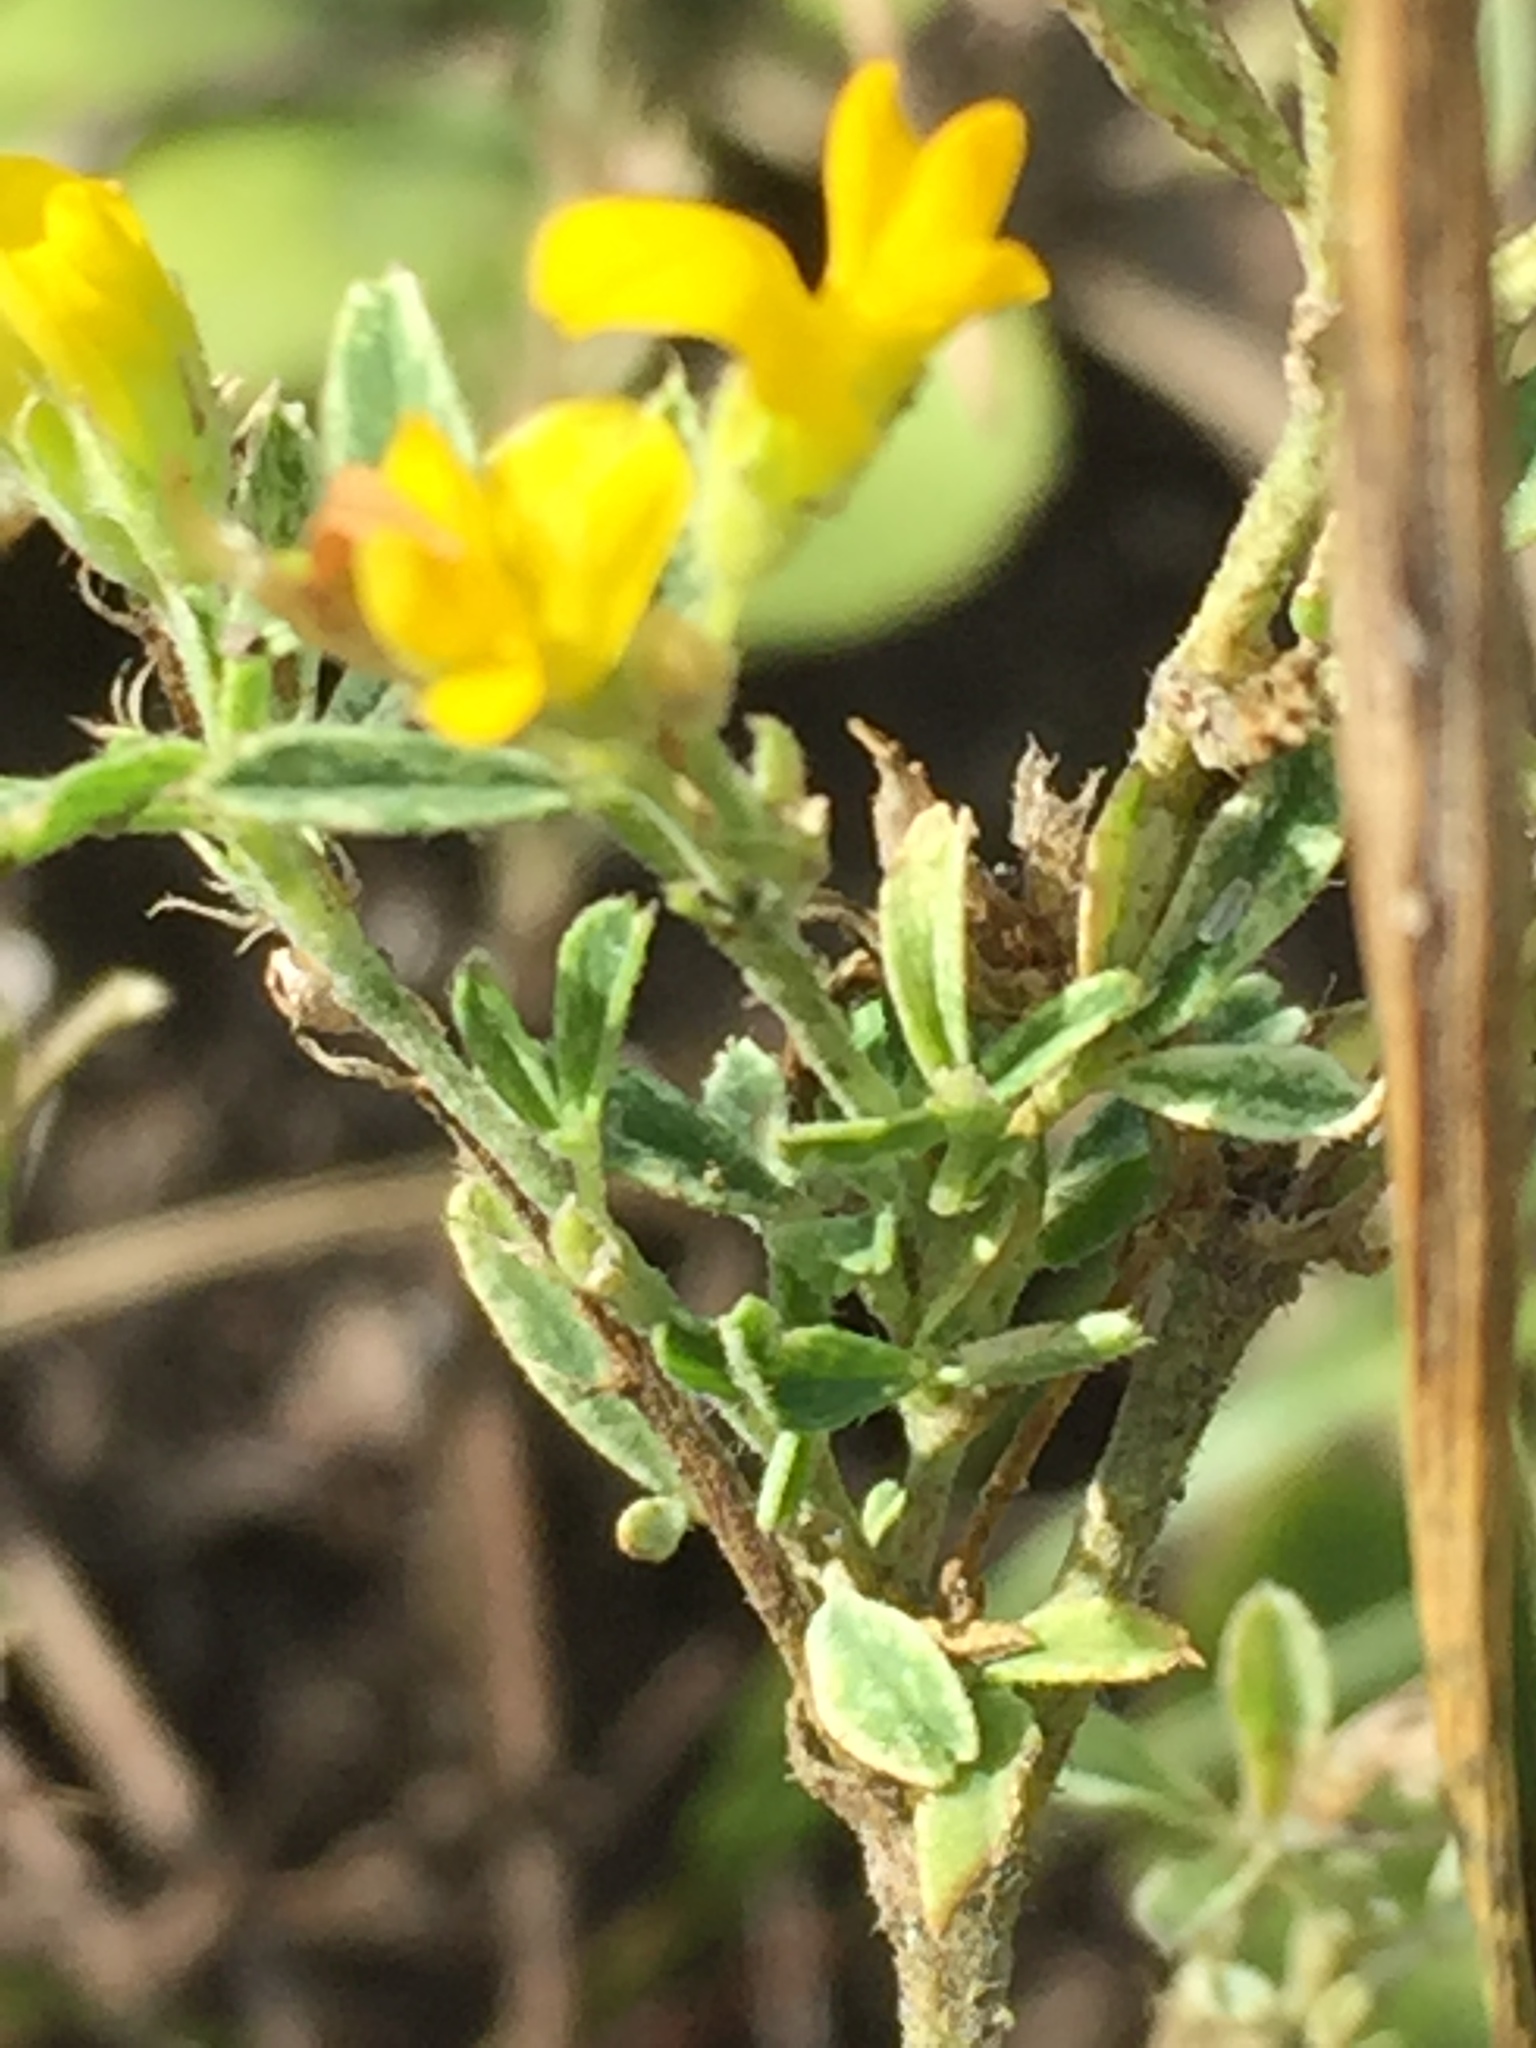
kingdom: Plantae
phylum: Tracheophyta
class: Magnoliopsida
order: Fabales
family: Fabaceae
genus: Medicago
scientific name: Medicago falcata
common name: Sickle medick
